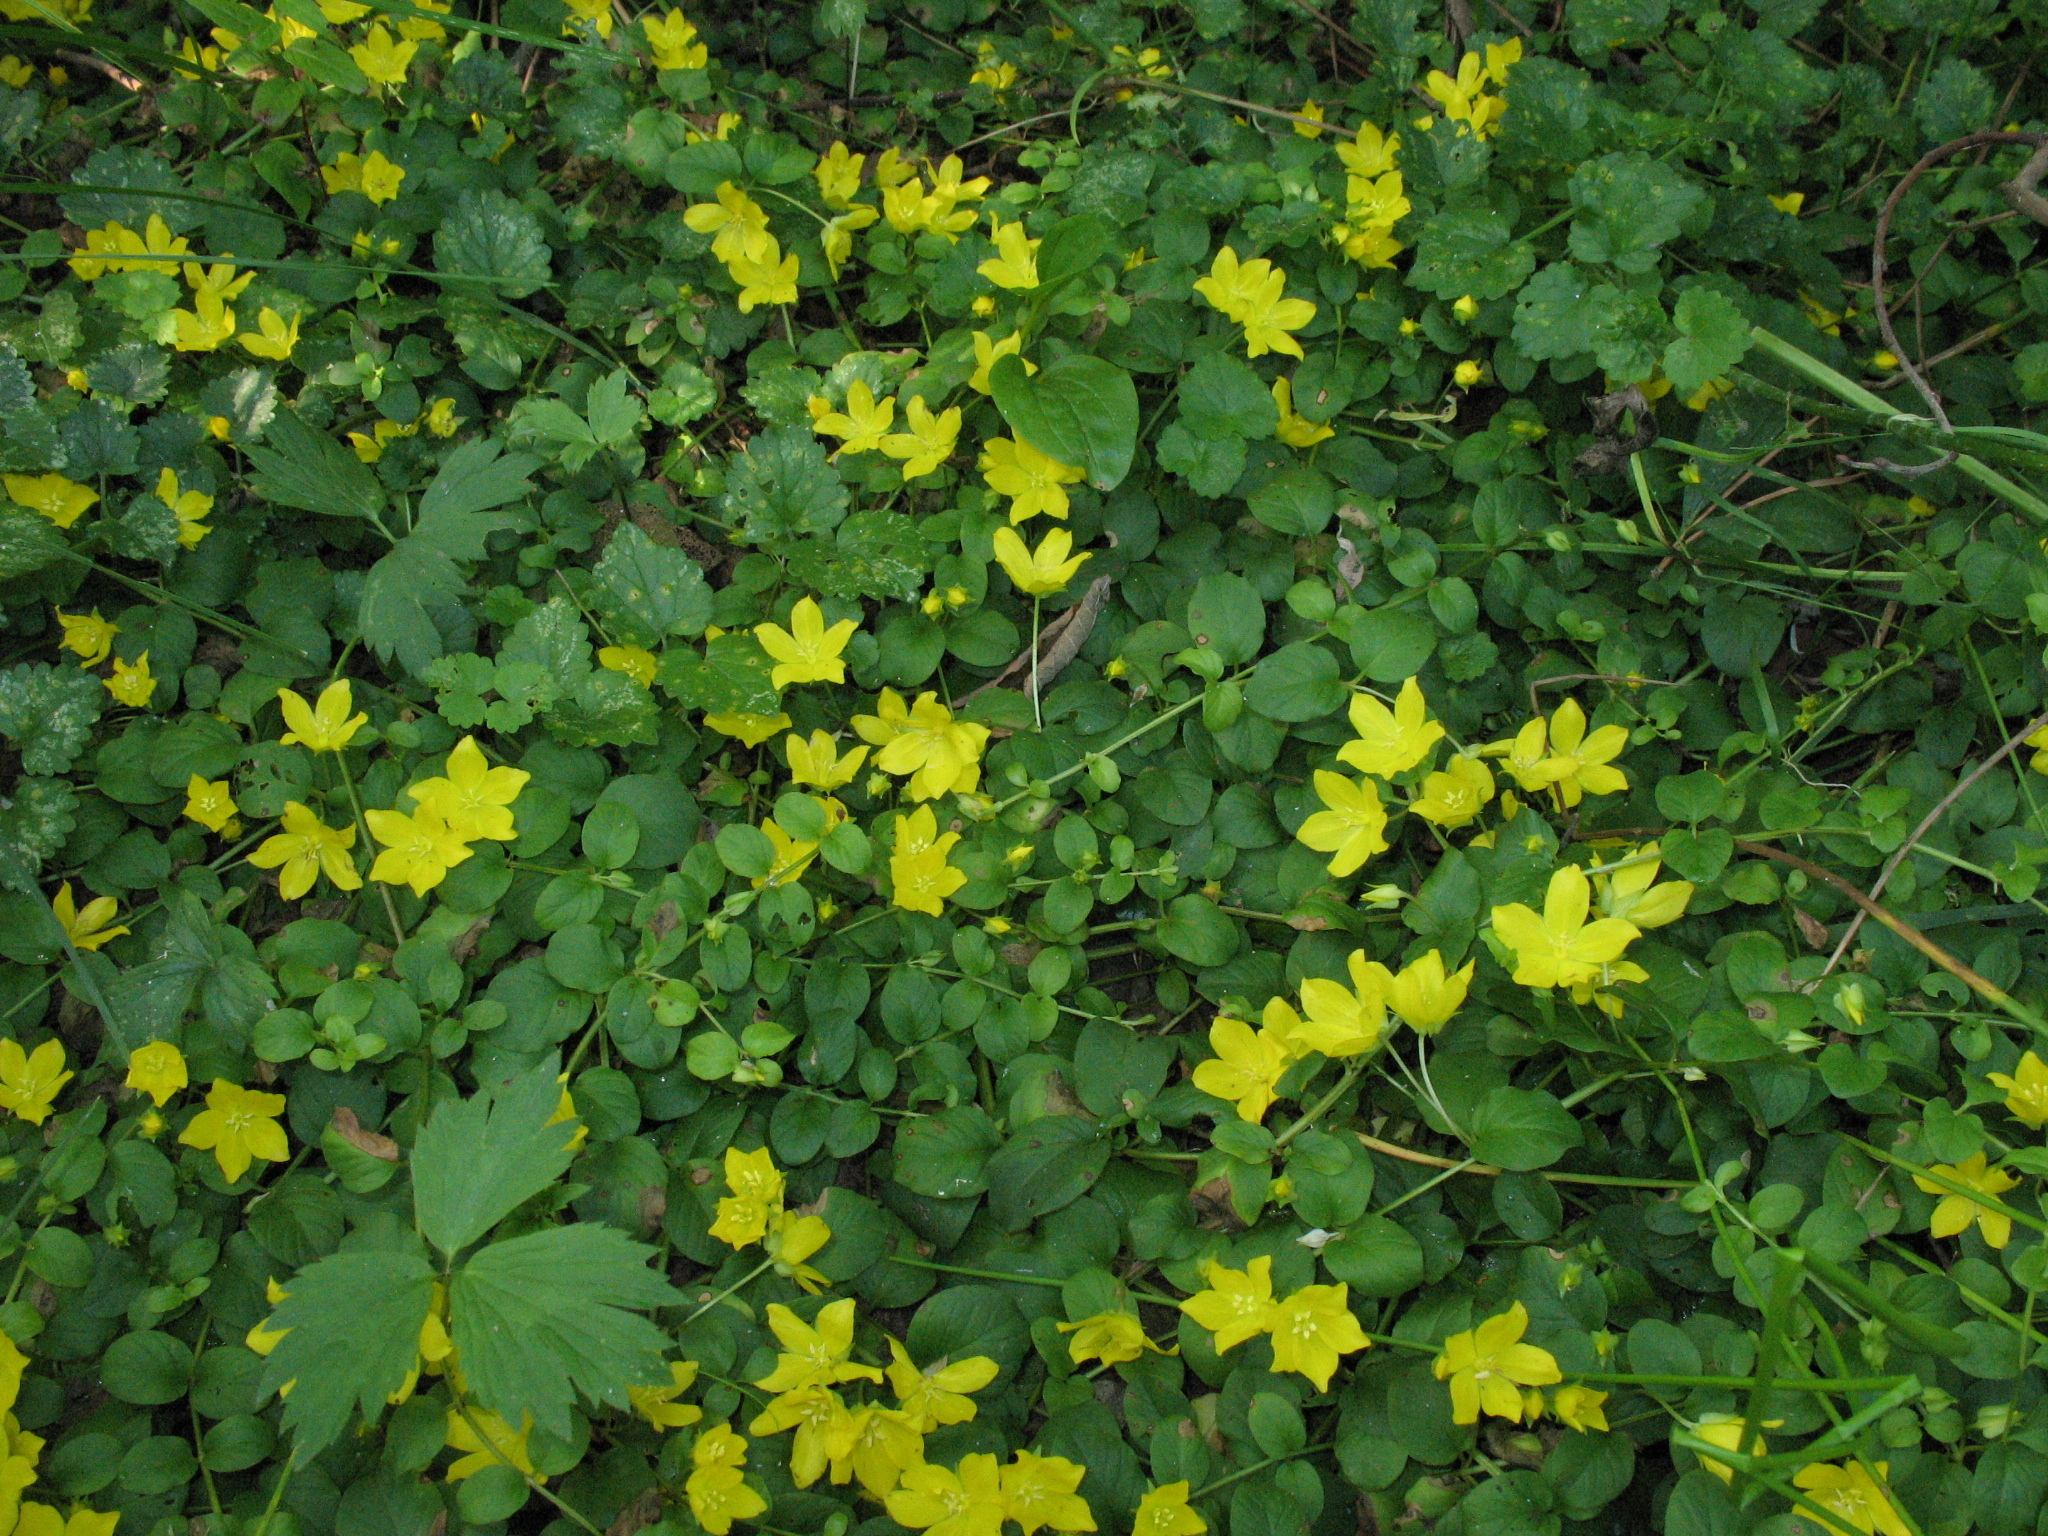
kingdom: Plantae
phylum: Tracheophyta
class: Magnoliopsida
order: Ericales
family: Primulaceae
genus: Lysimachia
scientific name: Lysimachia nummularia
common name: Moneywort
